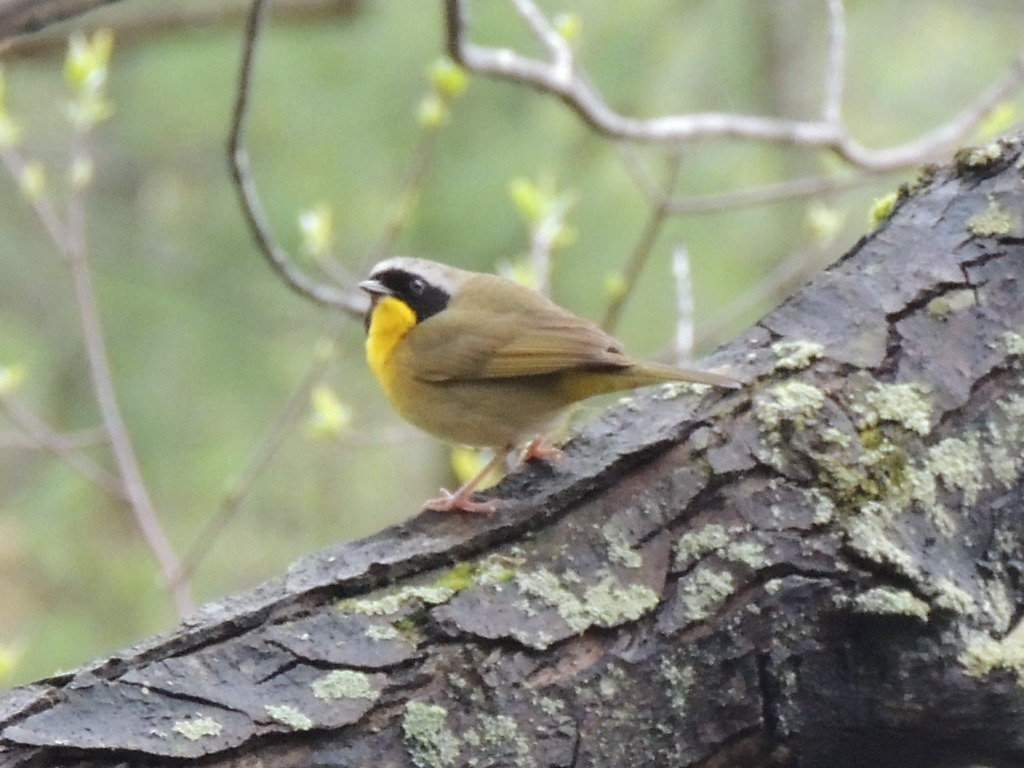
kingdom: Animalia
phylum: Chordata
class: Aves
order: Passeriformes
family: Parulidae
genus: Geothlypis
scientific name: Geothlypis trichas
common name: Common yellowthroat
